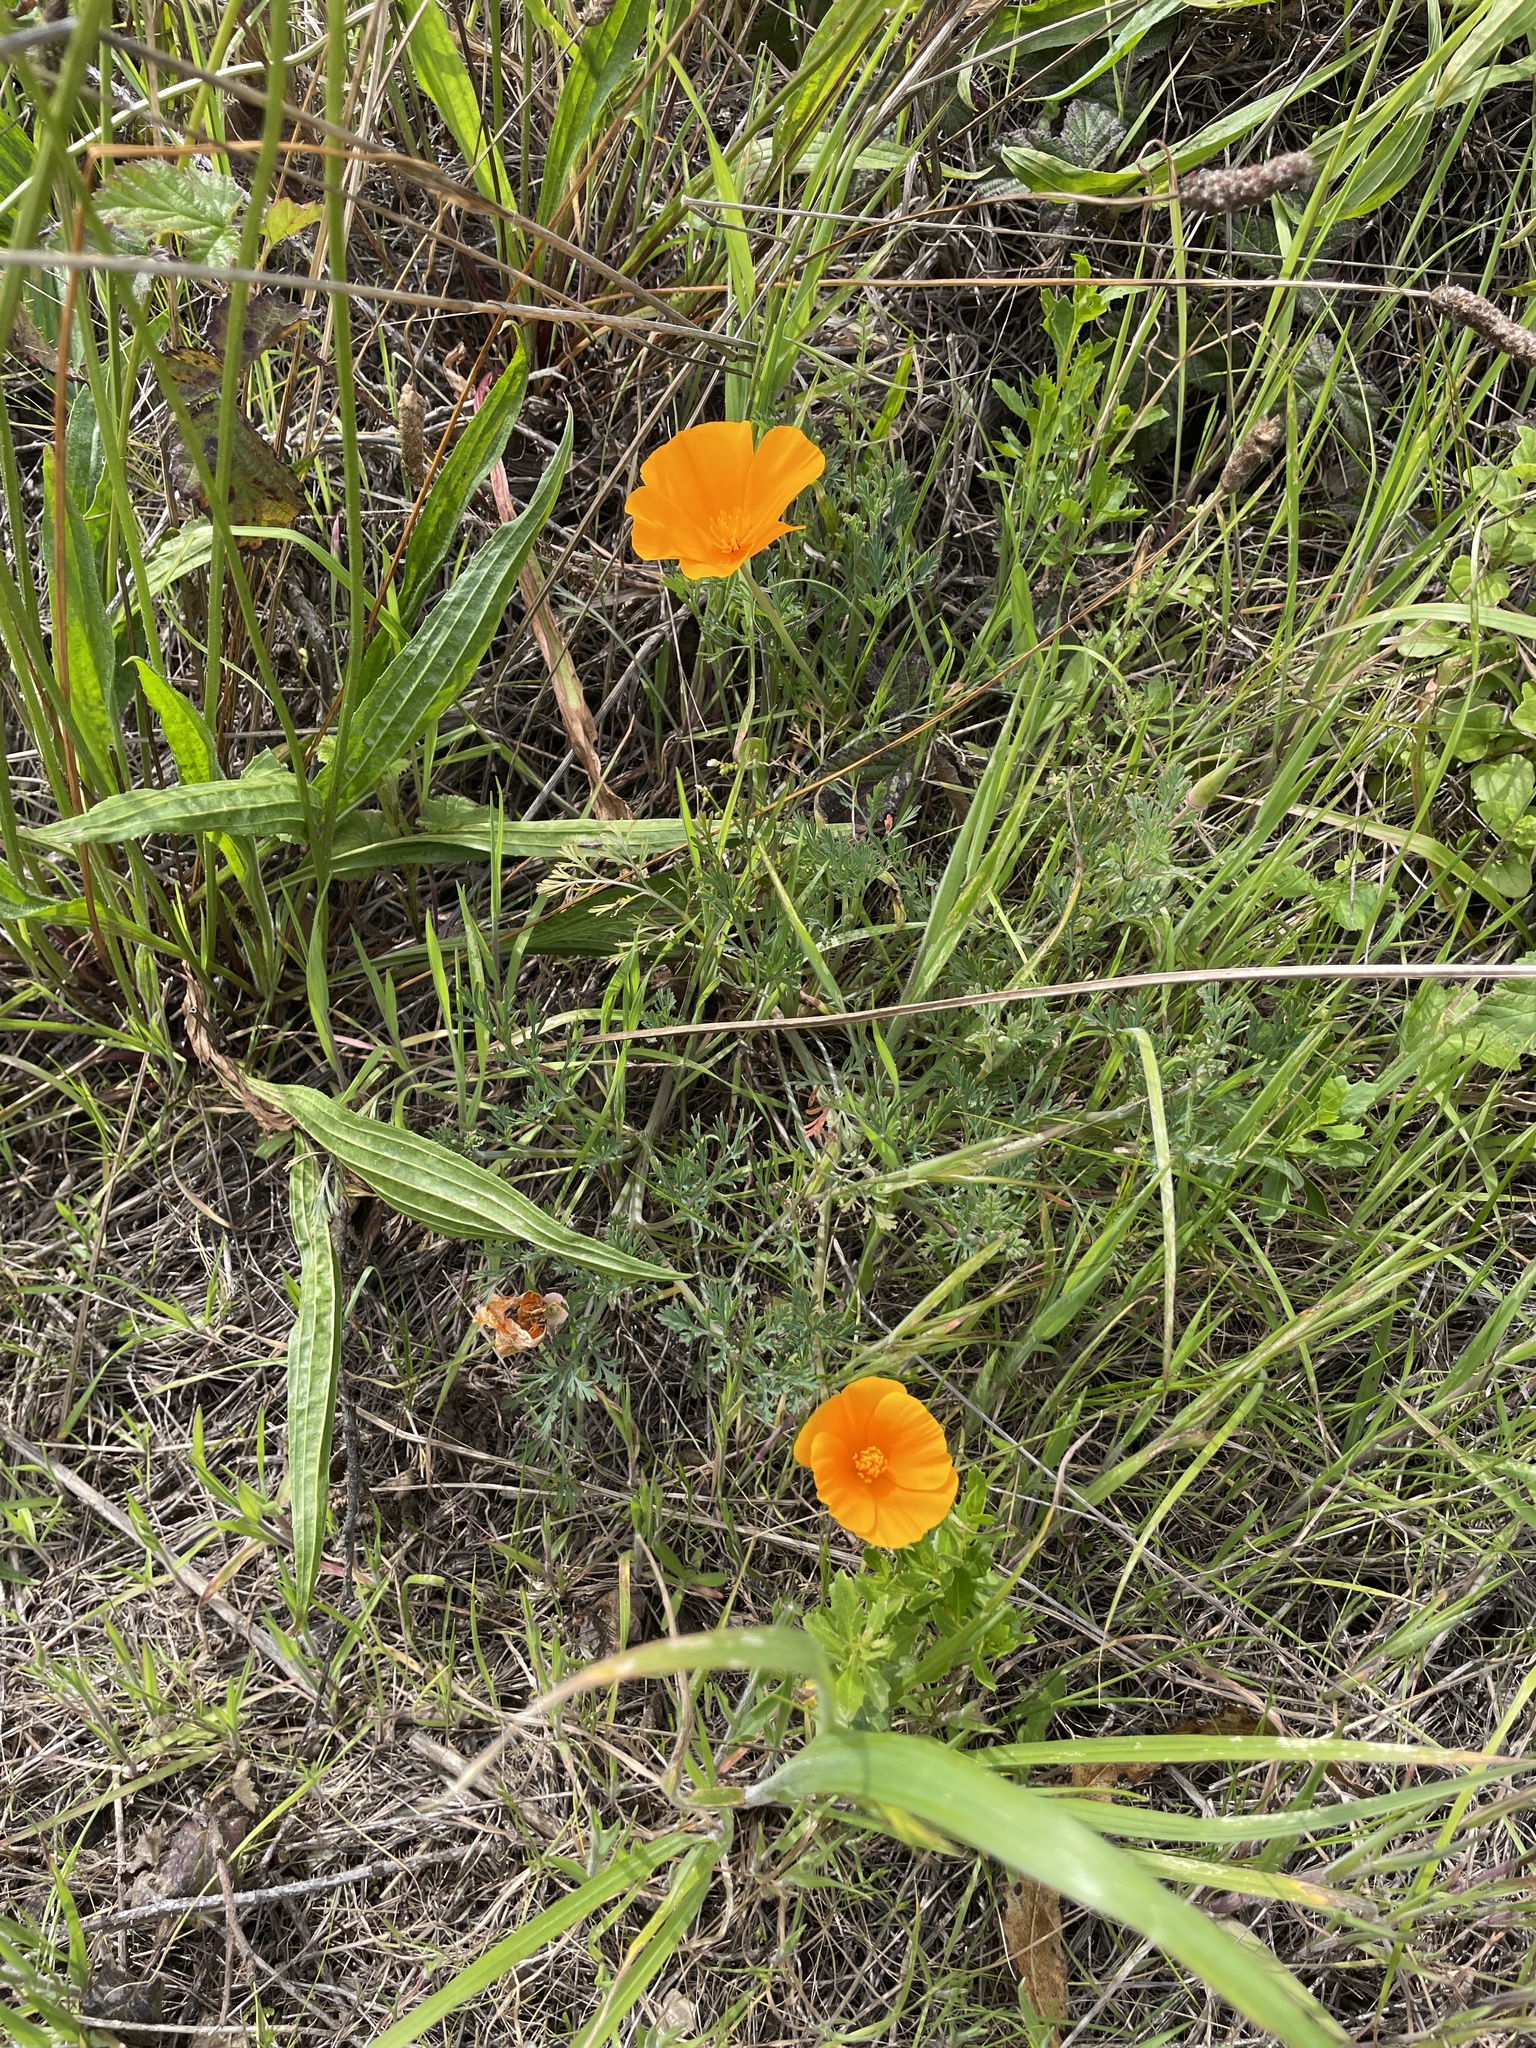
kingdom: Plantae
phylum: Tracheophyta
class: Magnoliopsida
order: Ranunculales
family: Papaveraceae
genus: Eschscholzia
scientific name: Eschscholzia californica
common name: California poppy
